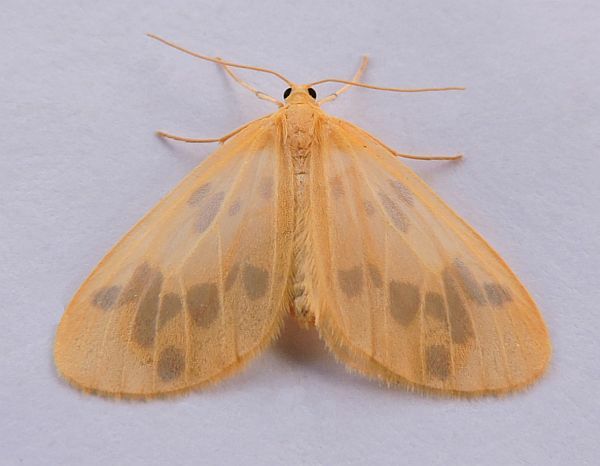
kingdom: Animalia
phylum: Arthropoda
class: Insecta
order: Lepidoptera
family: Geometridae
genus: Eubaphe
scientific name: Eubaphe mendica
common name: Beggar
